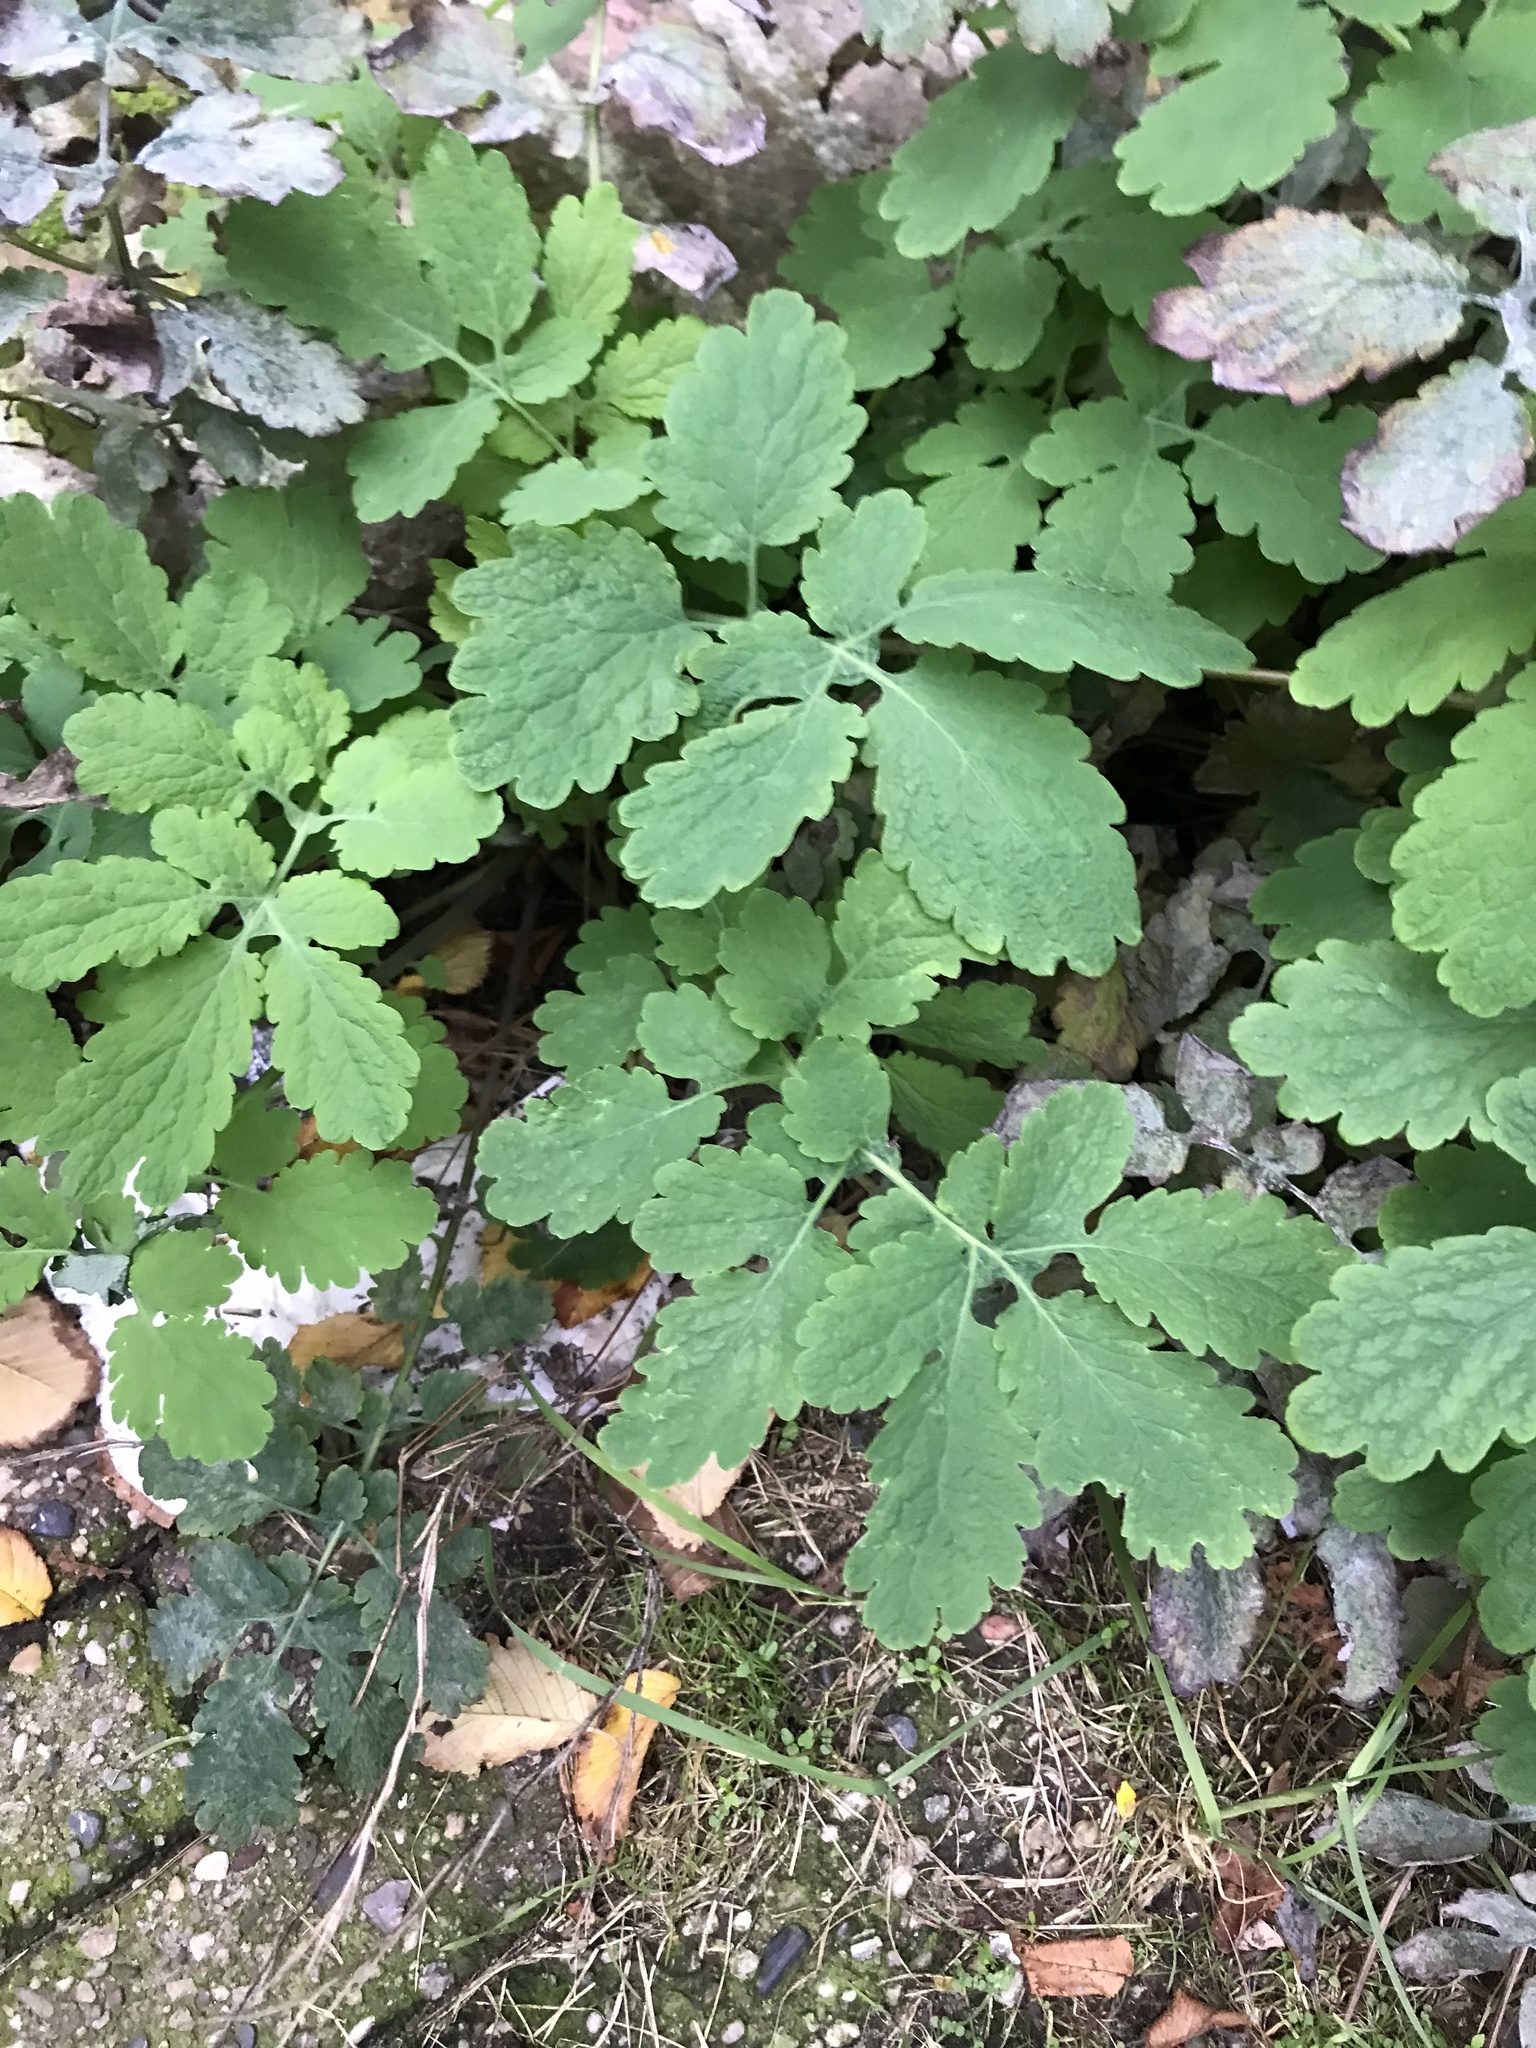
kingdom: Plantae
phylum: Tracheophyta
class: Magnoliopsida
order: Ranunculales
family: Papaveraceae
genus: Chelidonium
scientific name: Chelidonium majus
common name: Greater celandine
